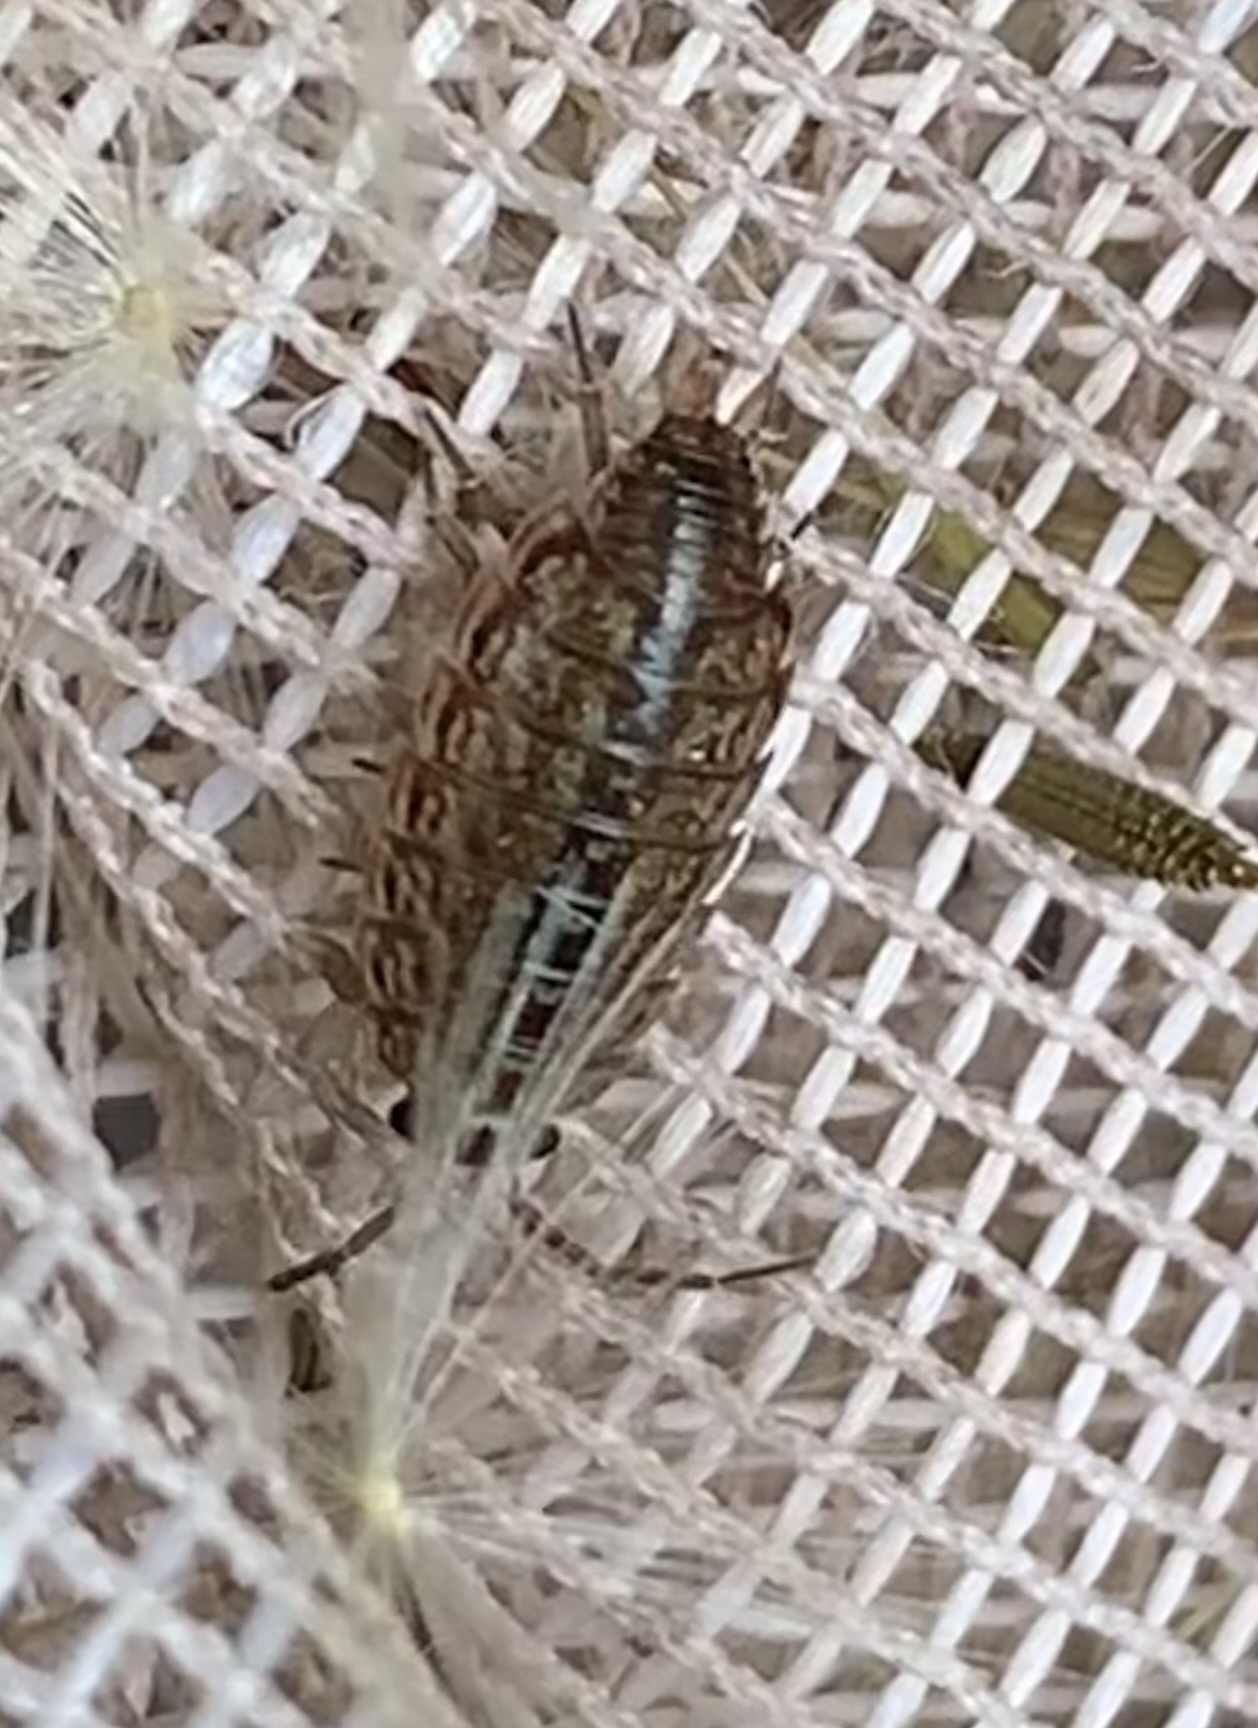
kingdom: Animalia
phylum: Arthropoda
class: Malacostraca
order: Isopoda
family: Philosciidae
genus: Philoscia
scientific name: Philoscia muscorum
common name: Common striped woodlouse
